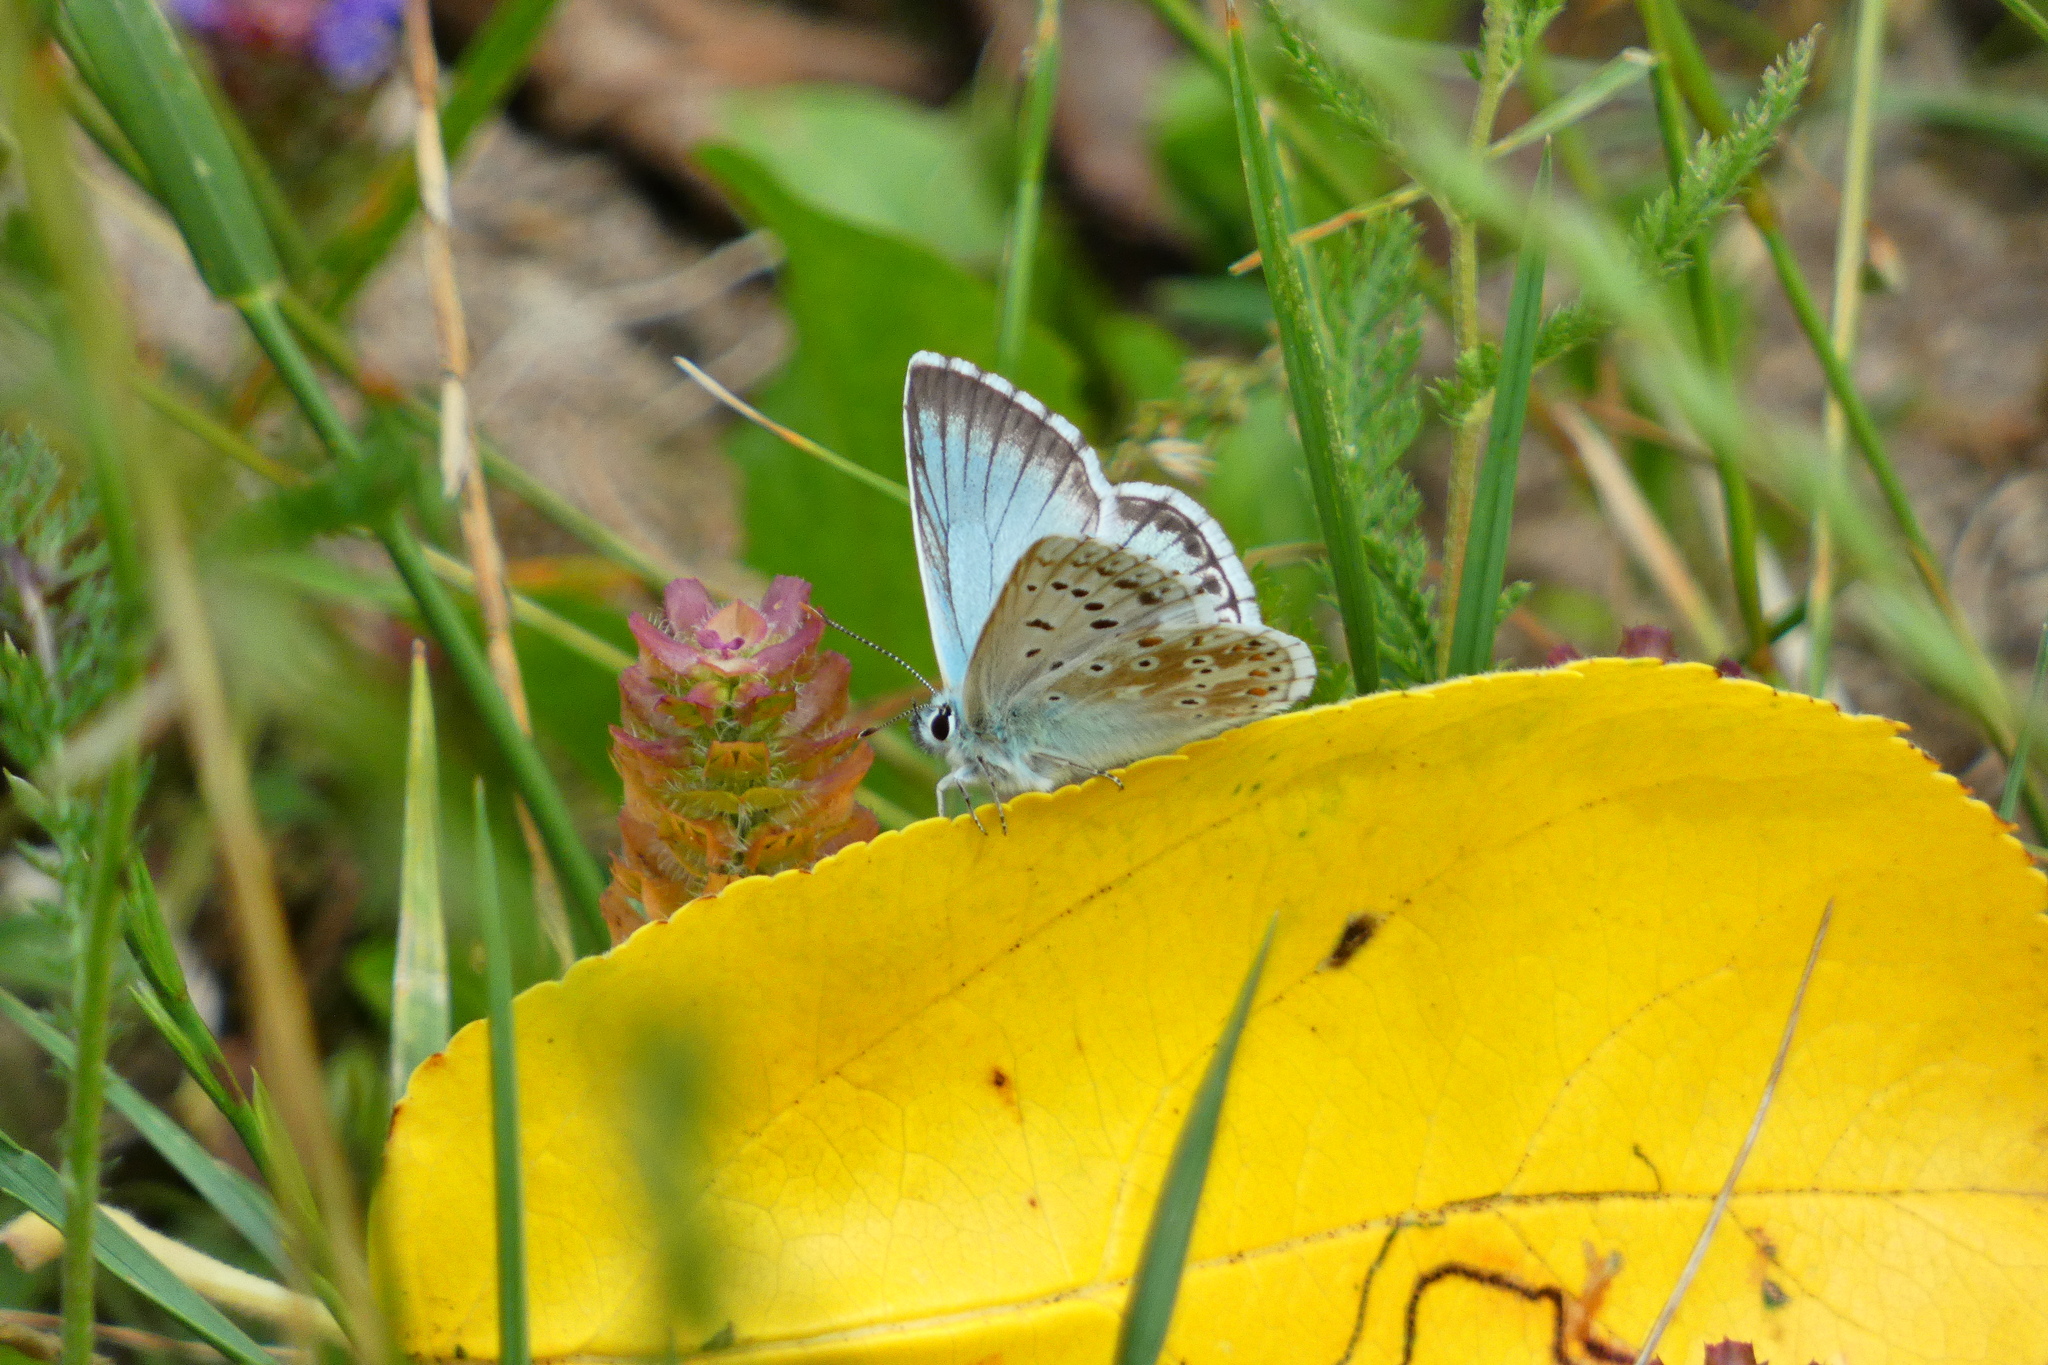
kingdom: Animalia
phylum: Arthropoda
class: Insecta
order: Lepidoptera
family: Lycaenidae
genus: Lysandra
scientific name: Lysandra coridon
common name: Chalkhill blue
